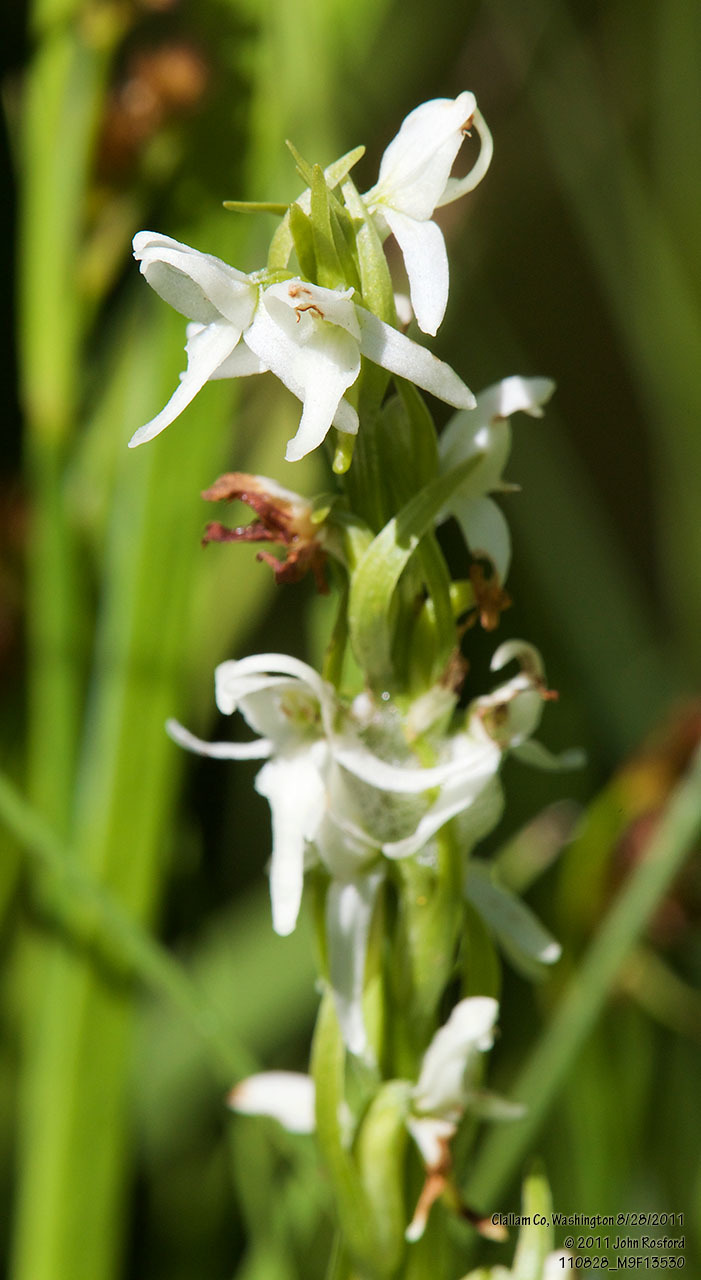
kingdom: Plantae
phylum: Tracheophyta
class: Liliopsida
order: Asparagales
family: Orchidaceae
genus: Platanthera
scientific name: Platanthera dilatata
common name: Bog candles
